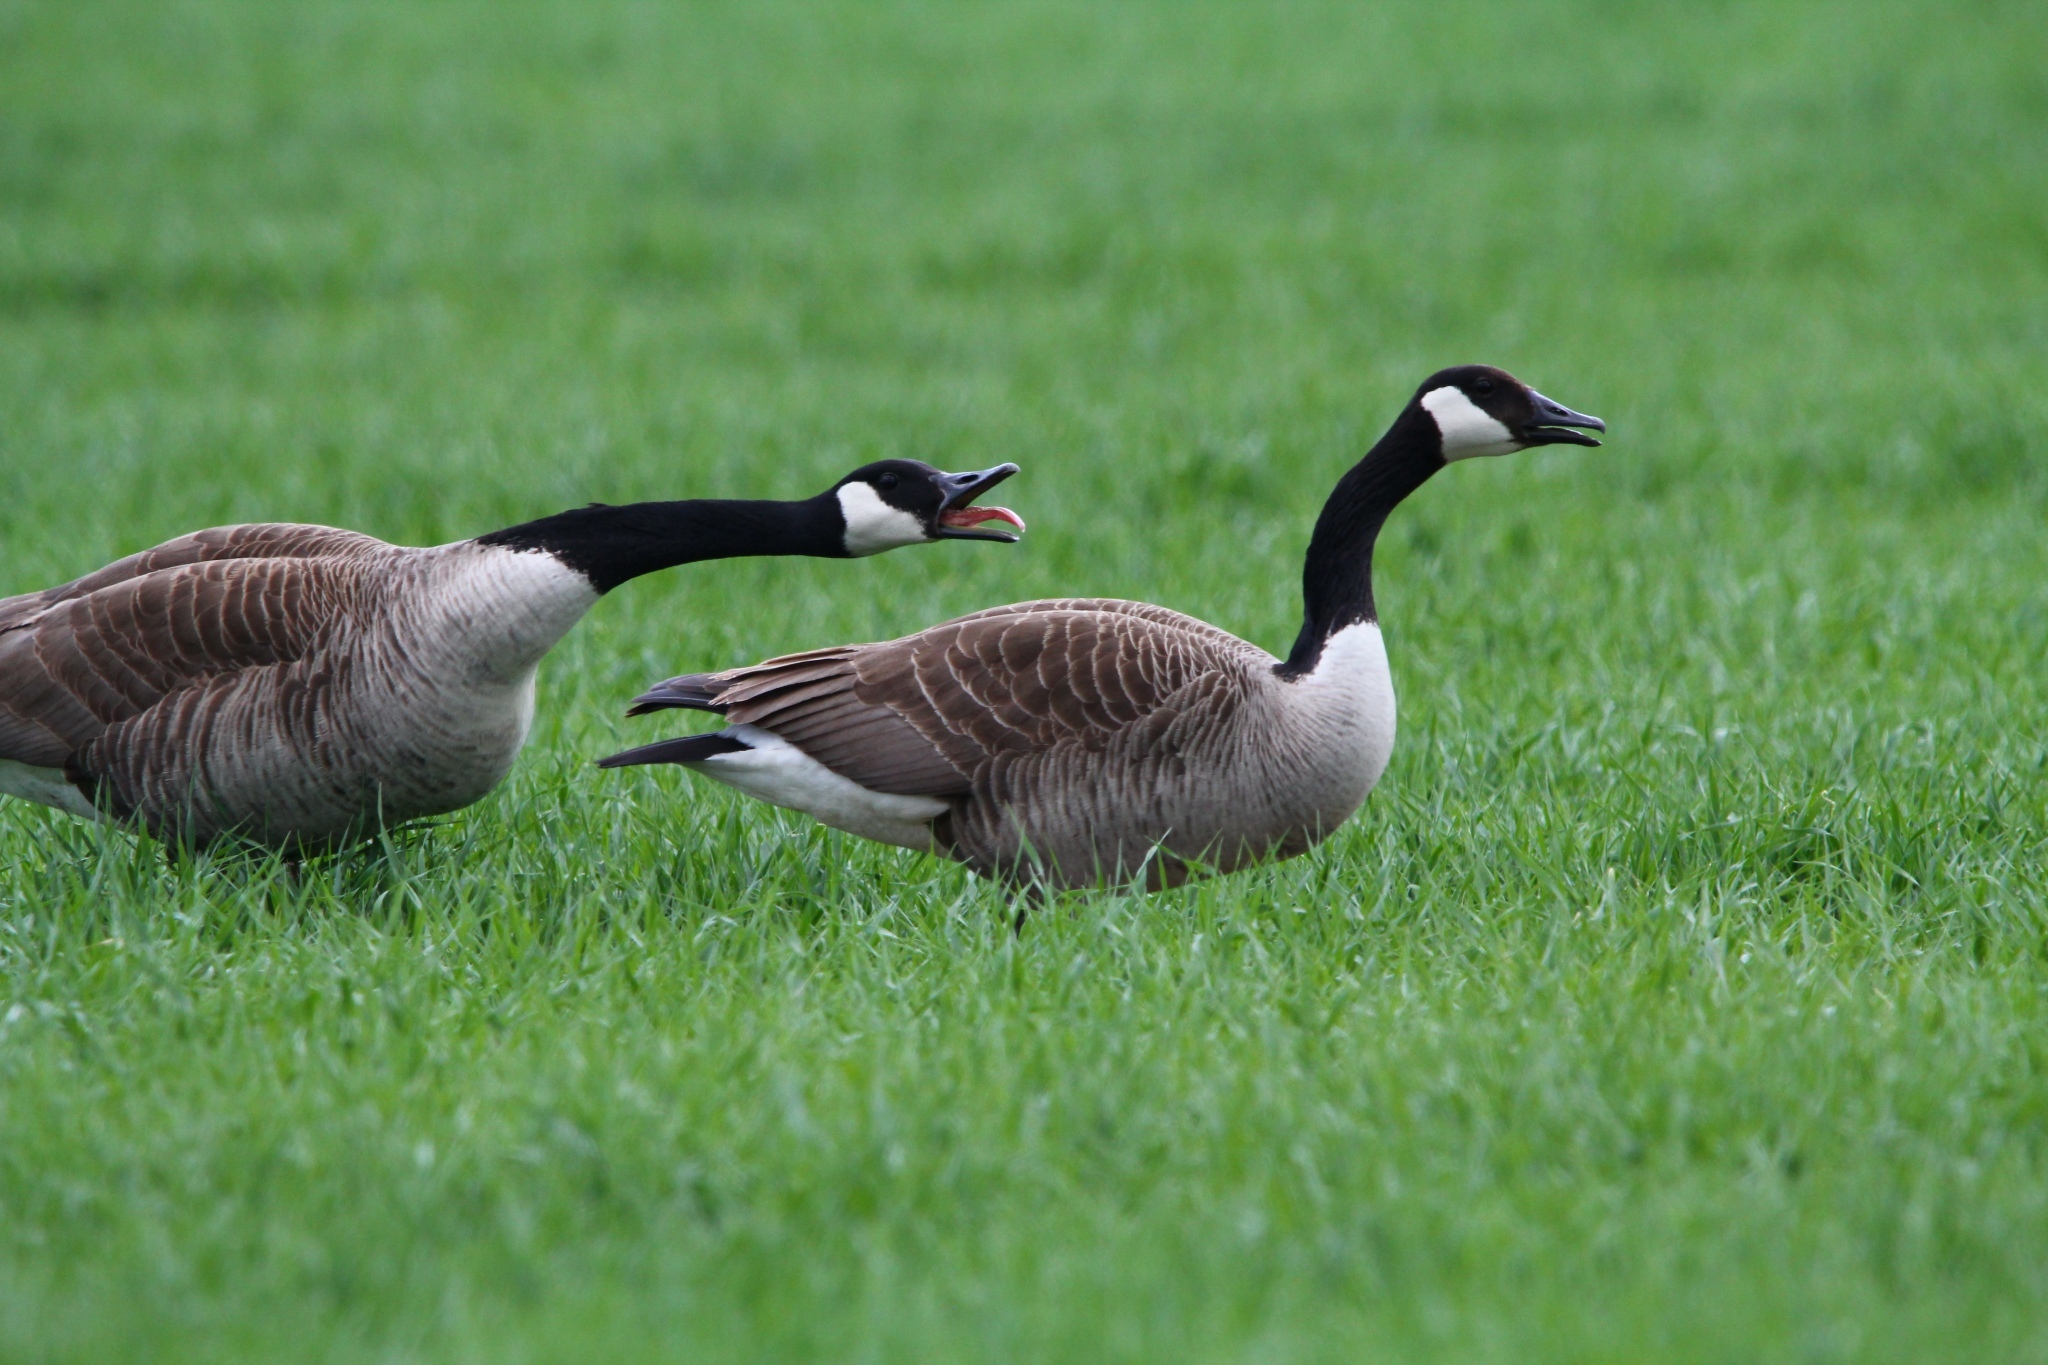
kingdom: Animalia
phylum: Chordata
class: Aves
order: Anseriformes
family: Anatidae
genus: Branta
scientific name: Branta canadensis
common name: Canada goose
